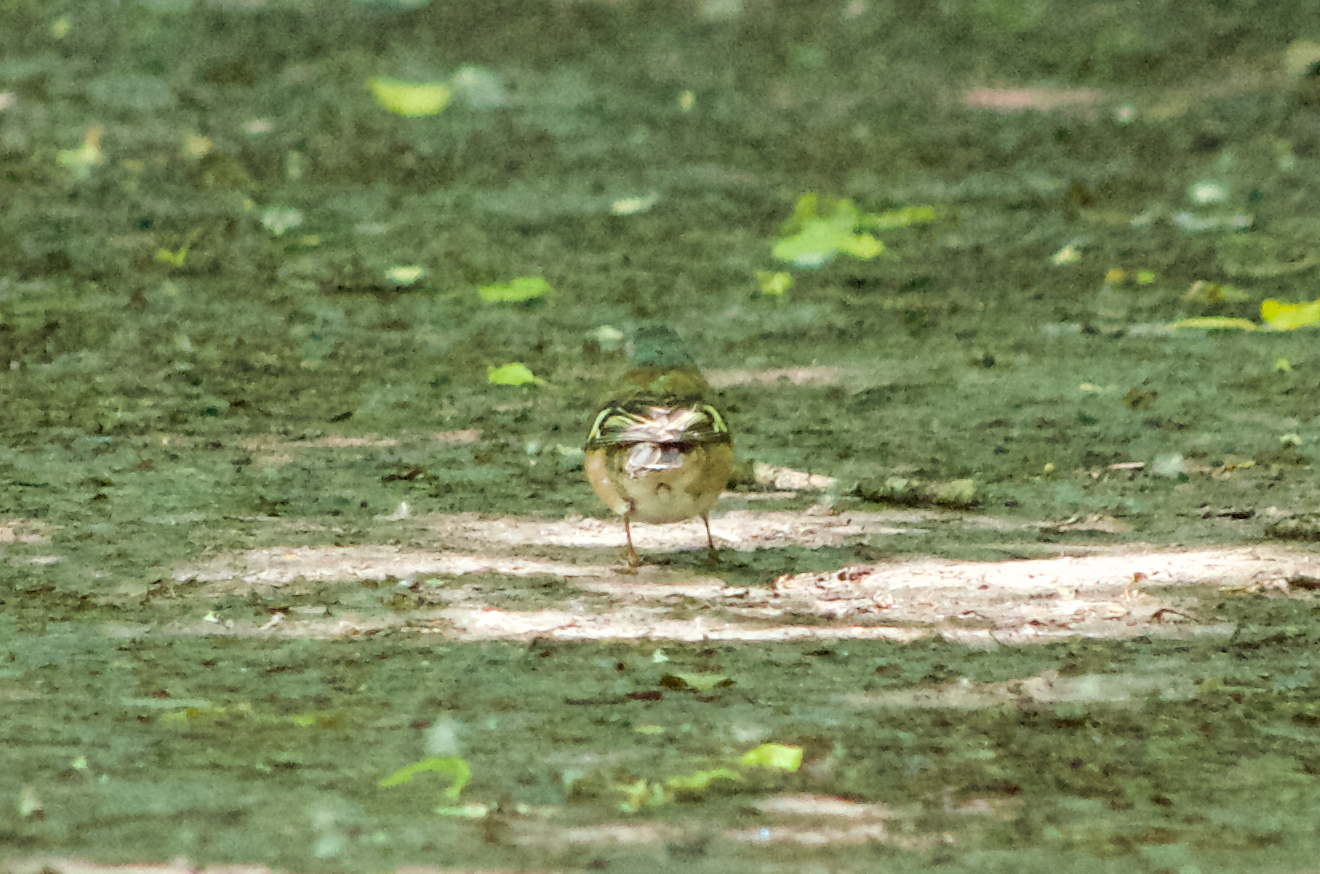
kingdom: Animalia
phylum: Chordata
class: Aves
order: Passeriformes
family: Fringillidae
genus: Fringilla
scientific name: Fringilla coelebs
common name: Common chaffinch
